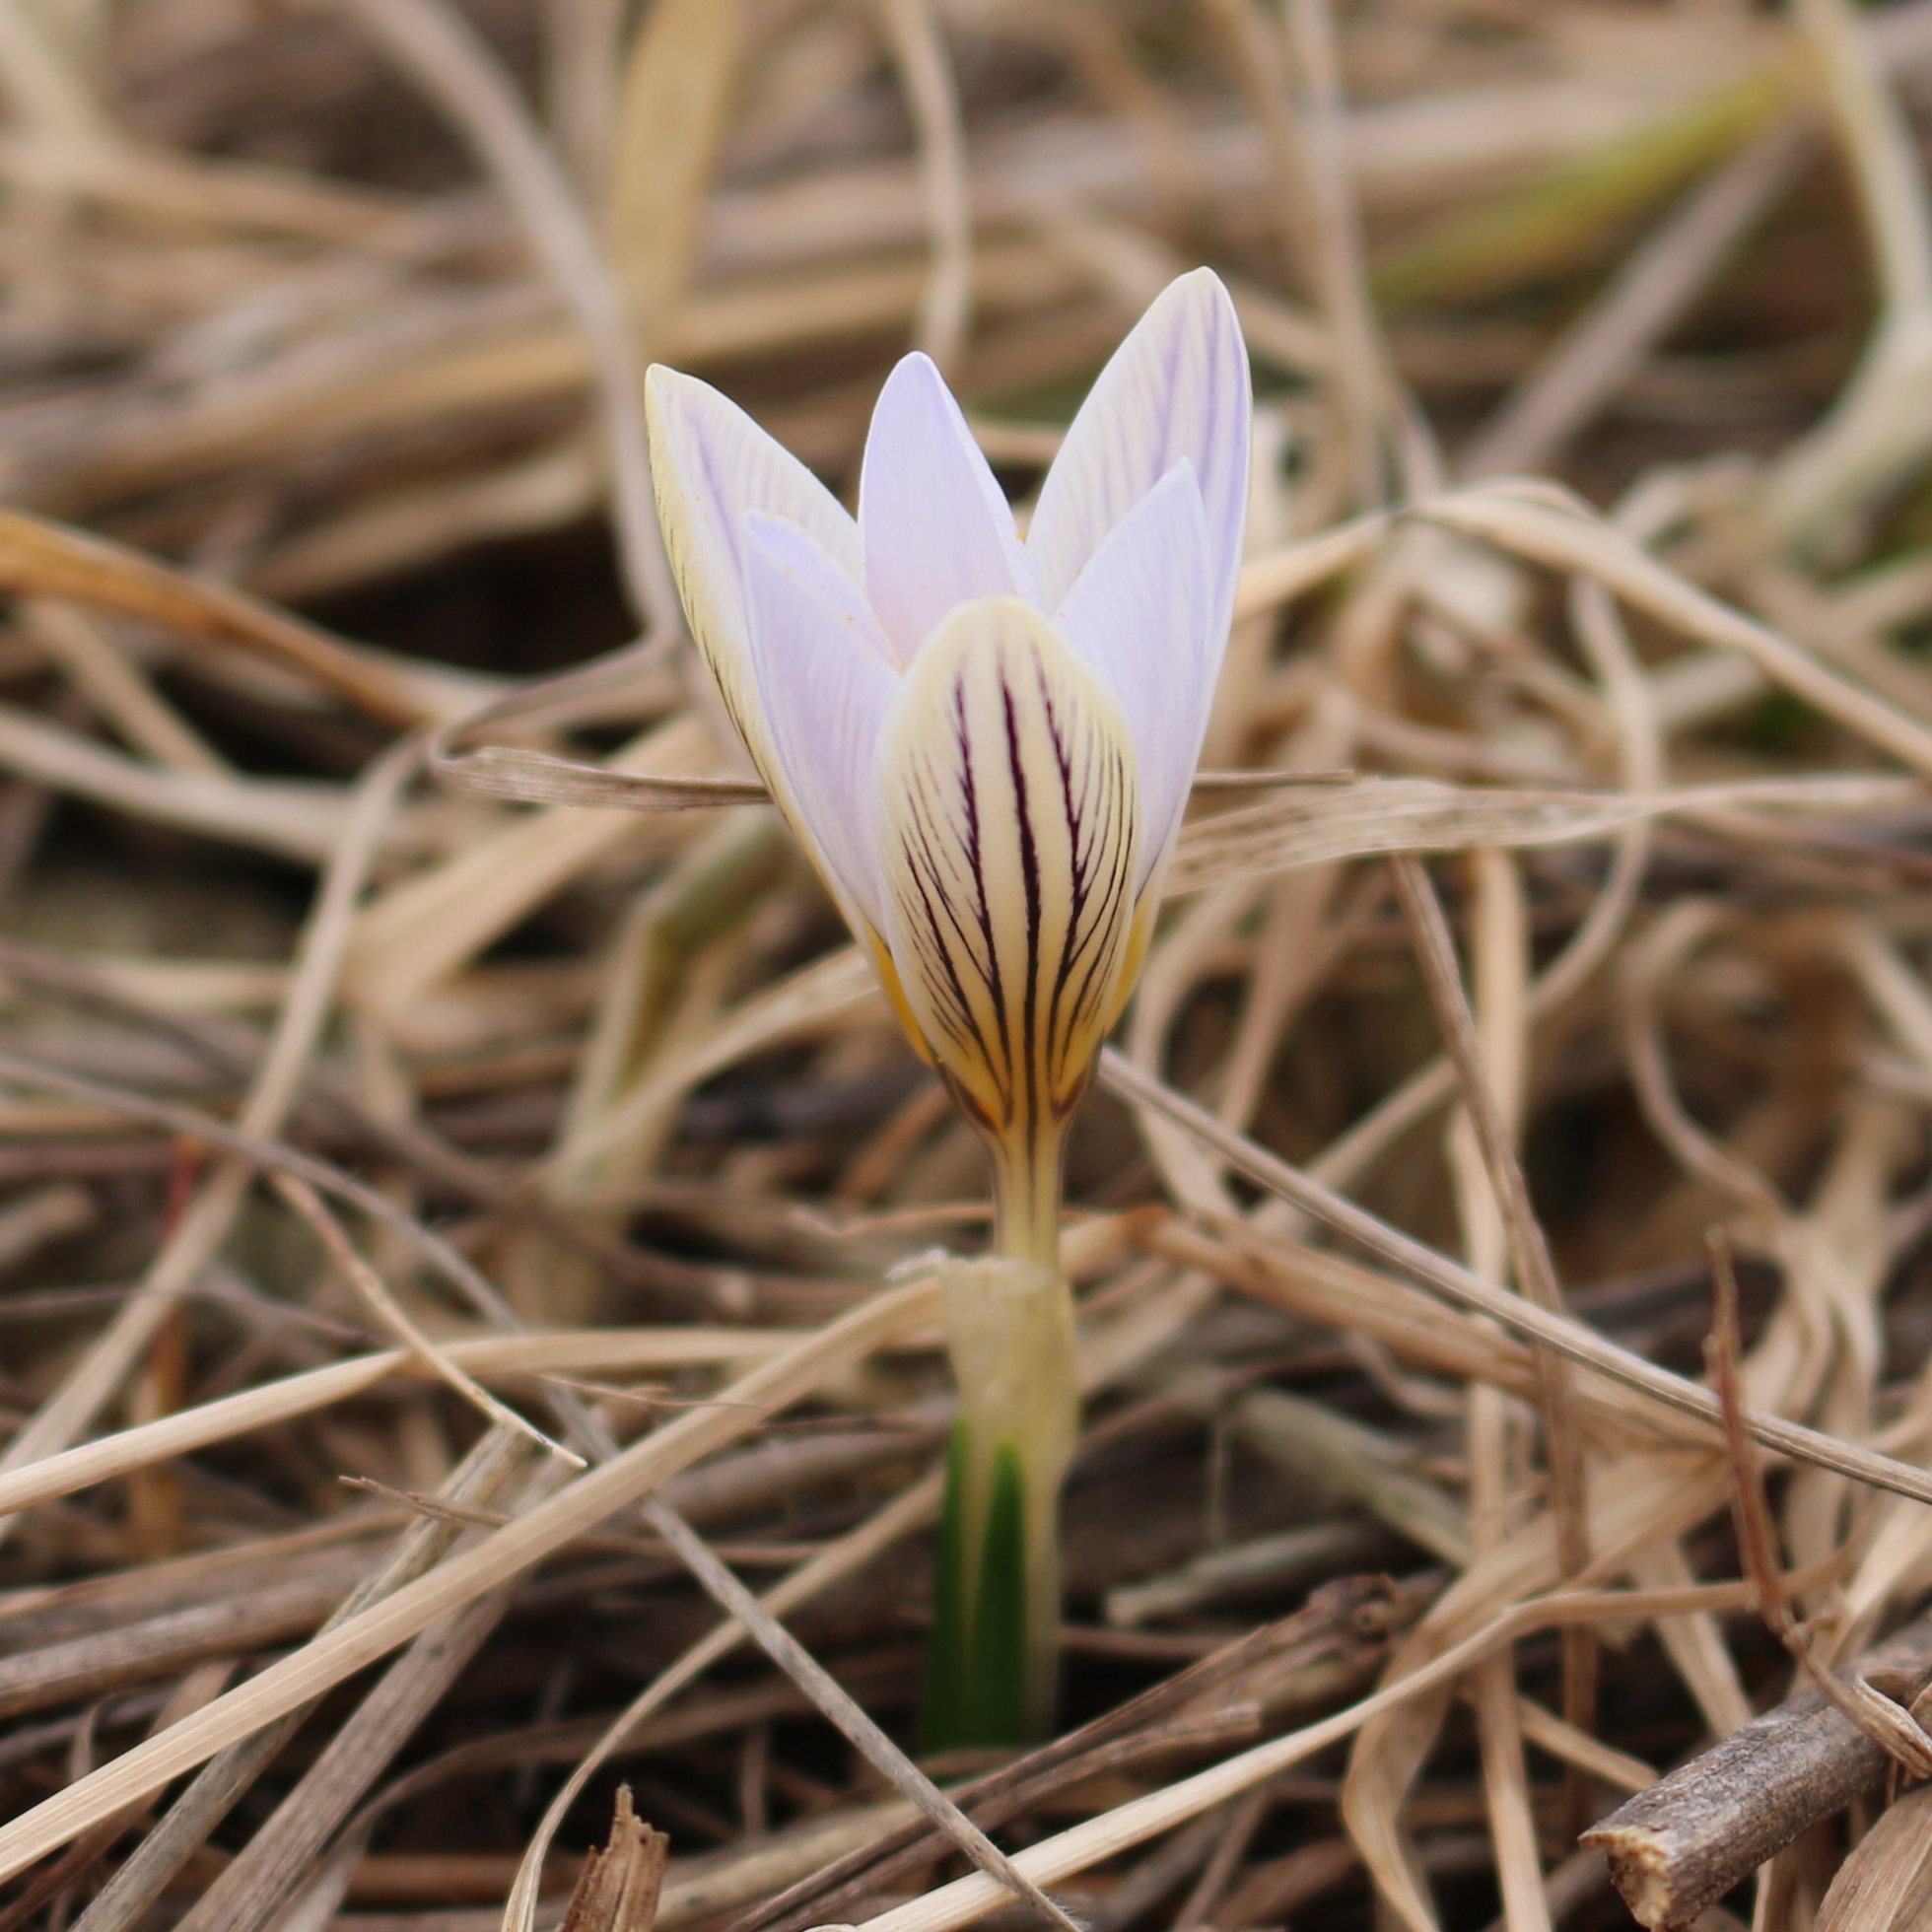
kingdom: Plantae
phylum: Tracheophyta
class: Liliopsida
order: Asparagales
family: Iridaceae
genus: Crocus
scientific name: Crocus reticulatus
